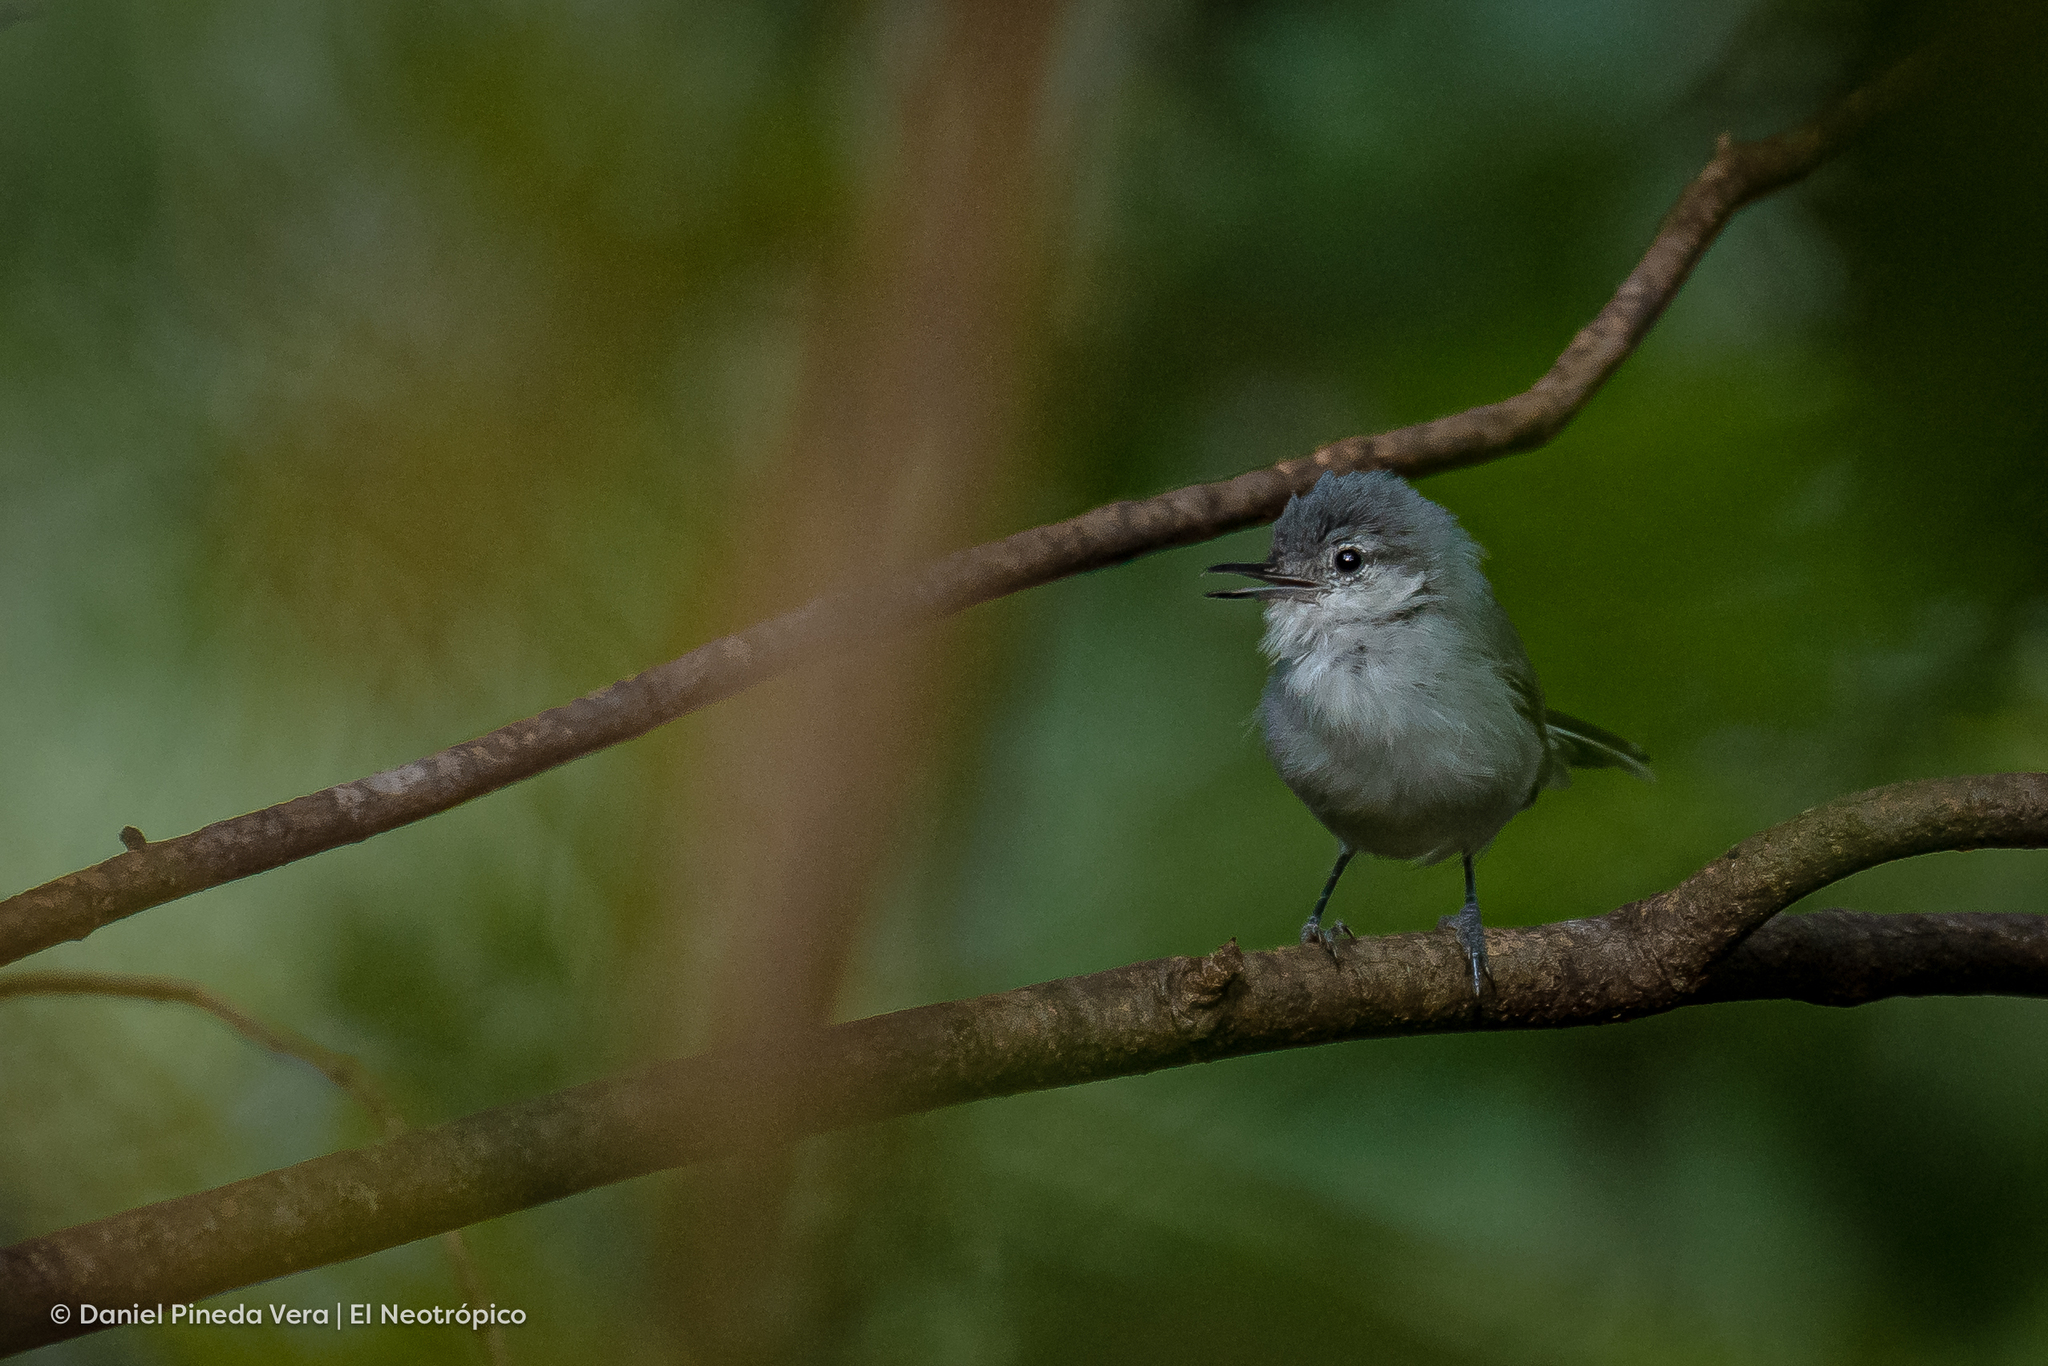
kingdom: Animalia
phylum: Chordata
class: Aves
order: Passeriformes
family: Polioptilidae
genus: Polioptila
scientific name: Polioptila albiloris
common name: White-lored gnatcatcher
